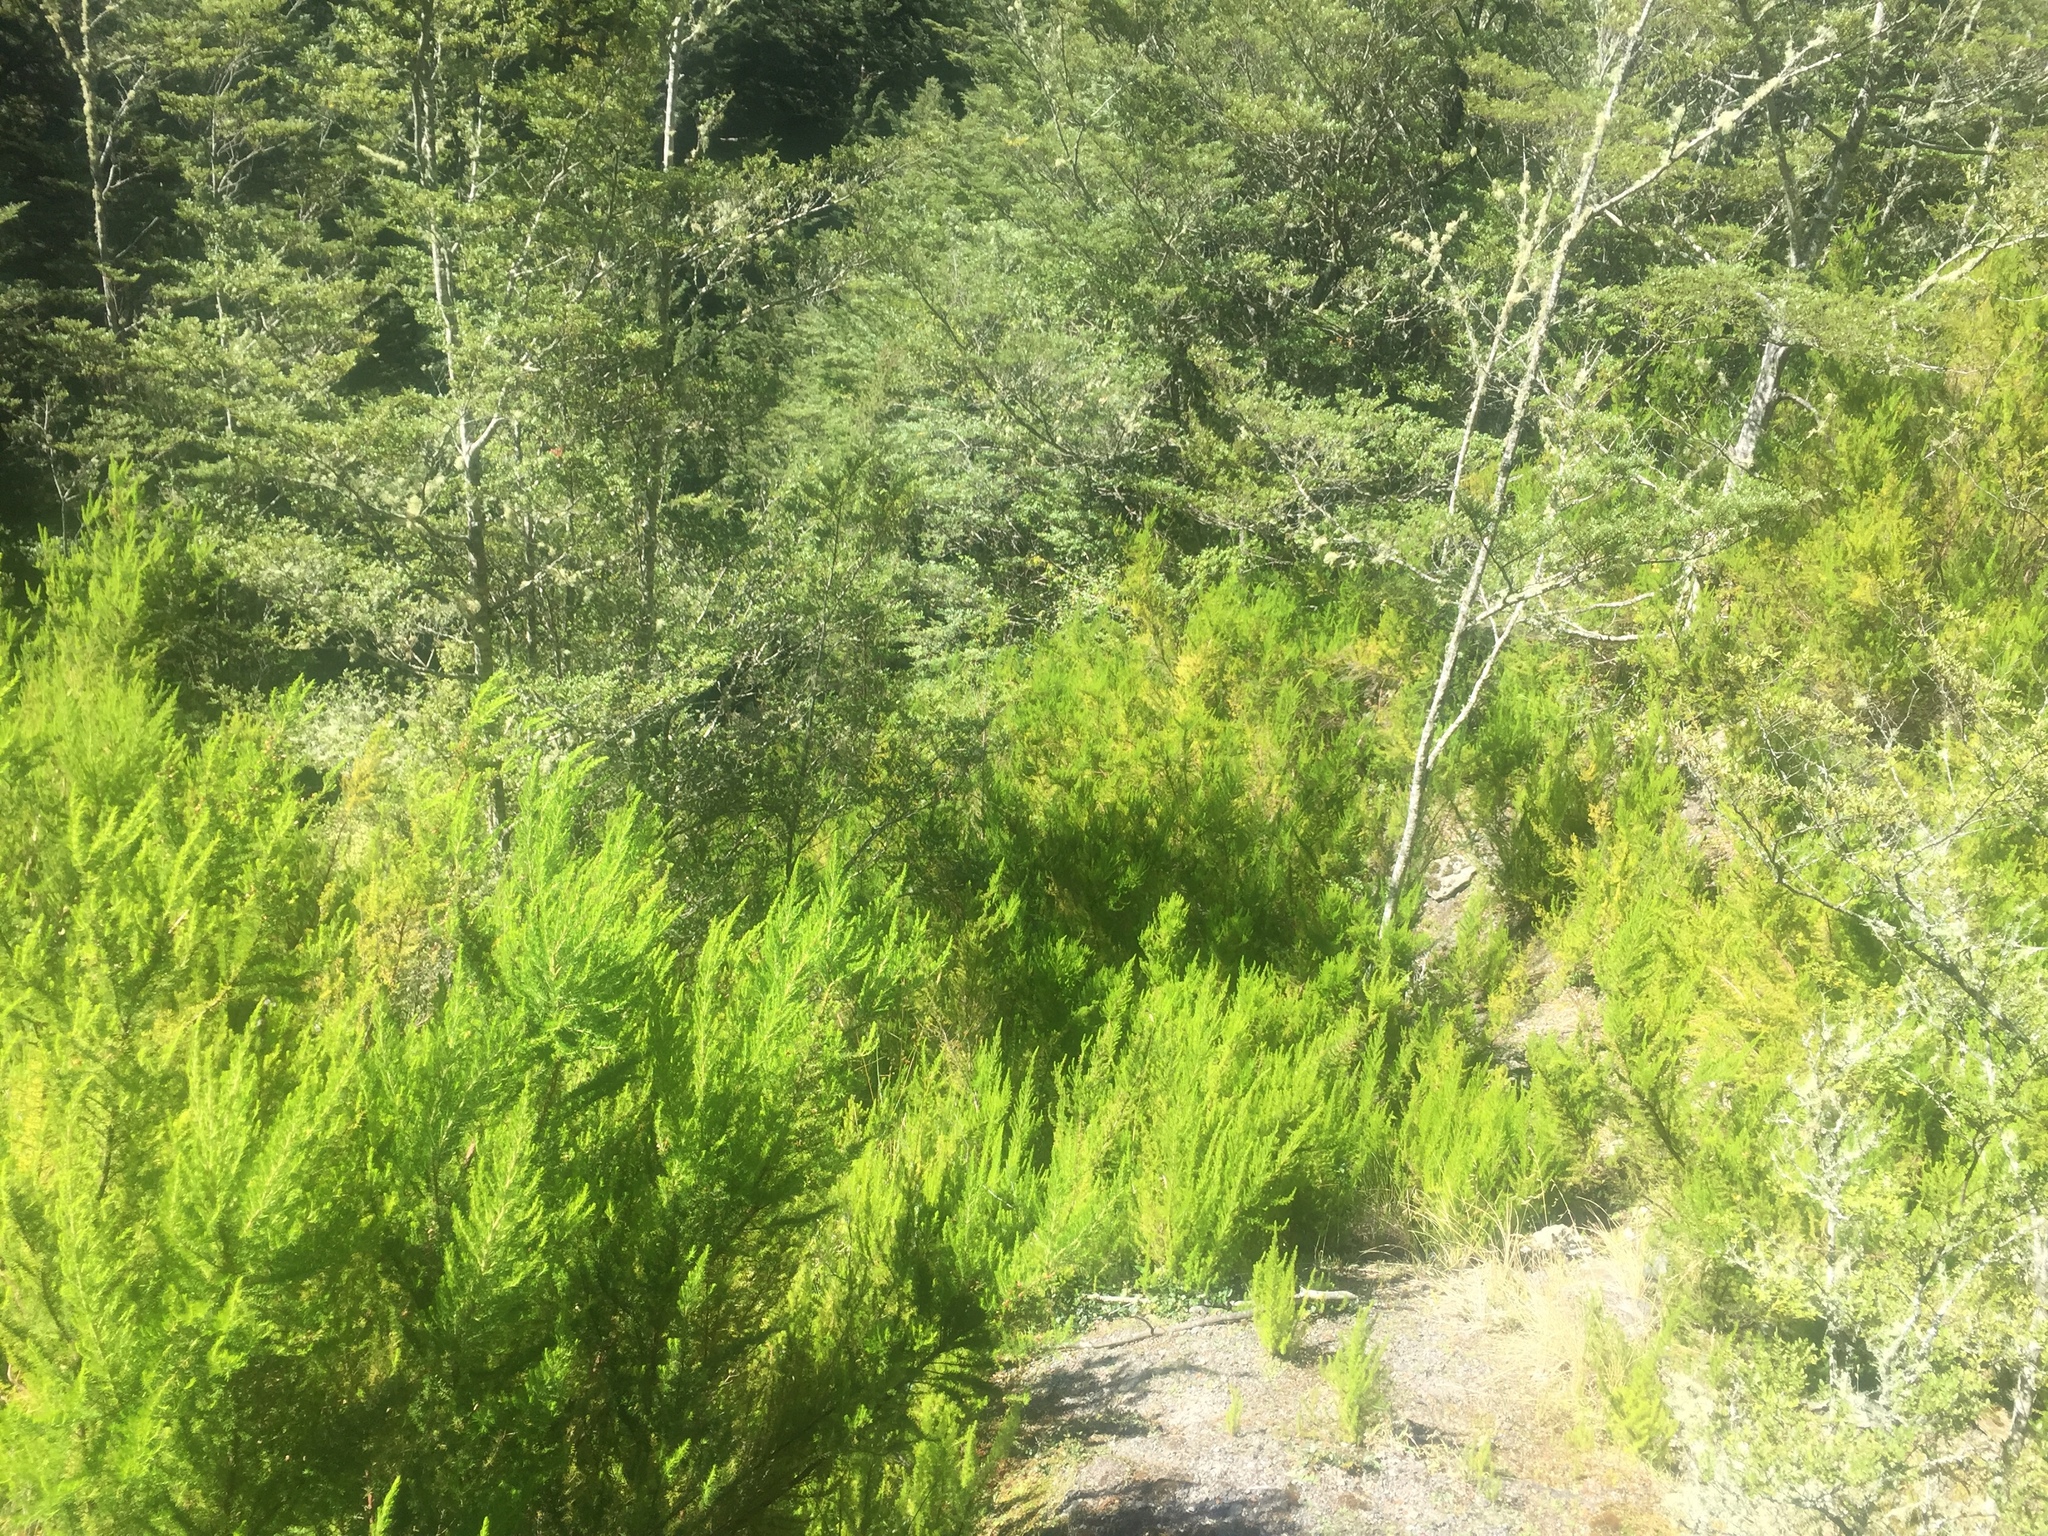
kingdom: Plantae
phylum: Tracheophyta
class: Magnoliopsida
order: Ericales
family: Ericaceae
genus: Erica
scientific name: Erica lusitanica
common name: Spanish heath
